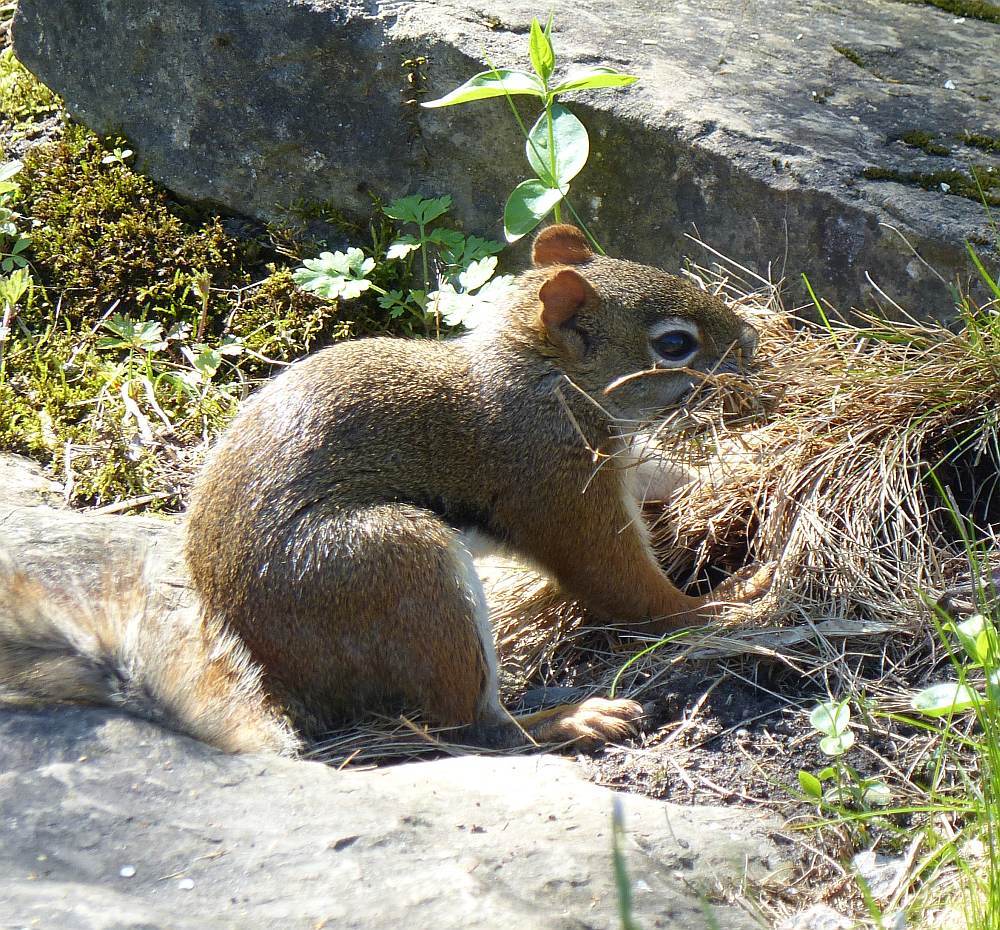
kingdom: Animalia
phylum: Chordata
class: Mammalia
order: Rodentia
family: Sciuridae
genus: Tamiasciurus
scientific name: Tamiasciurus hudsonicus
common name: Red squirrel
